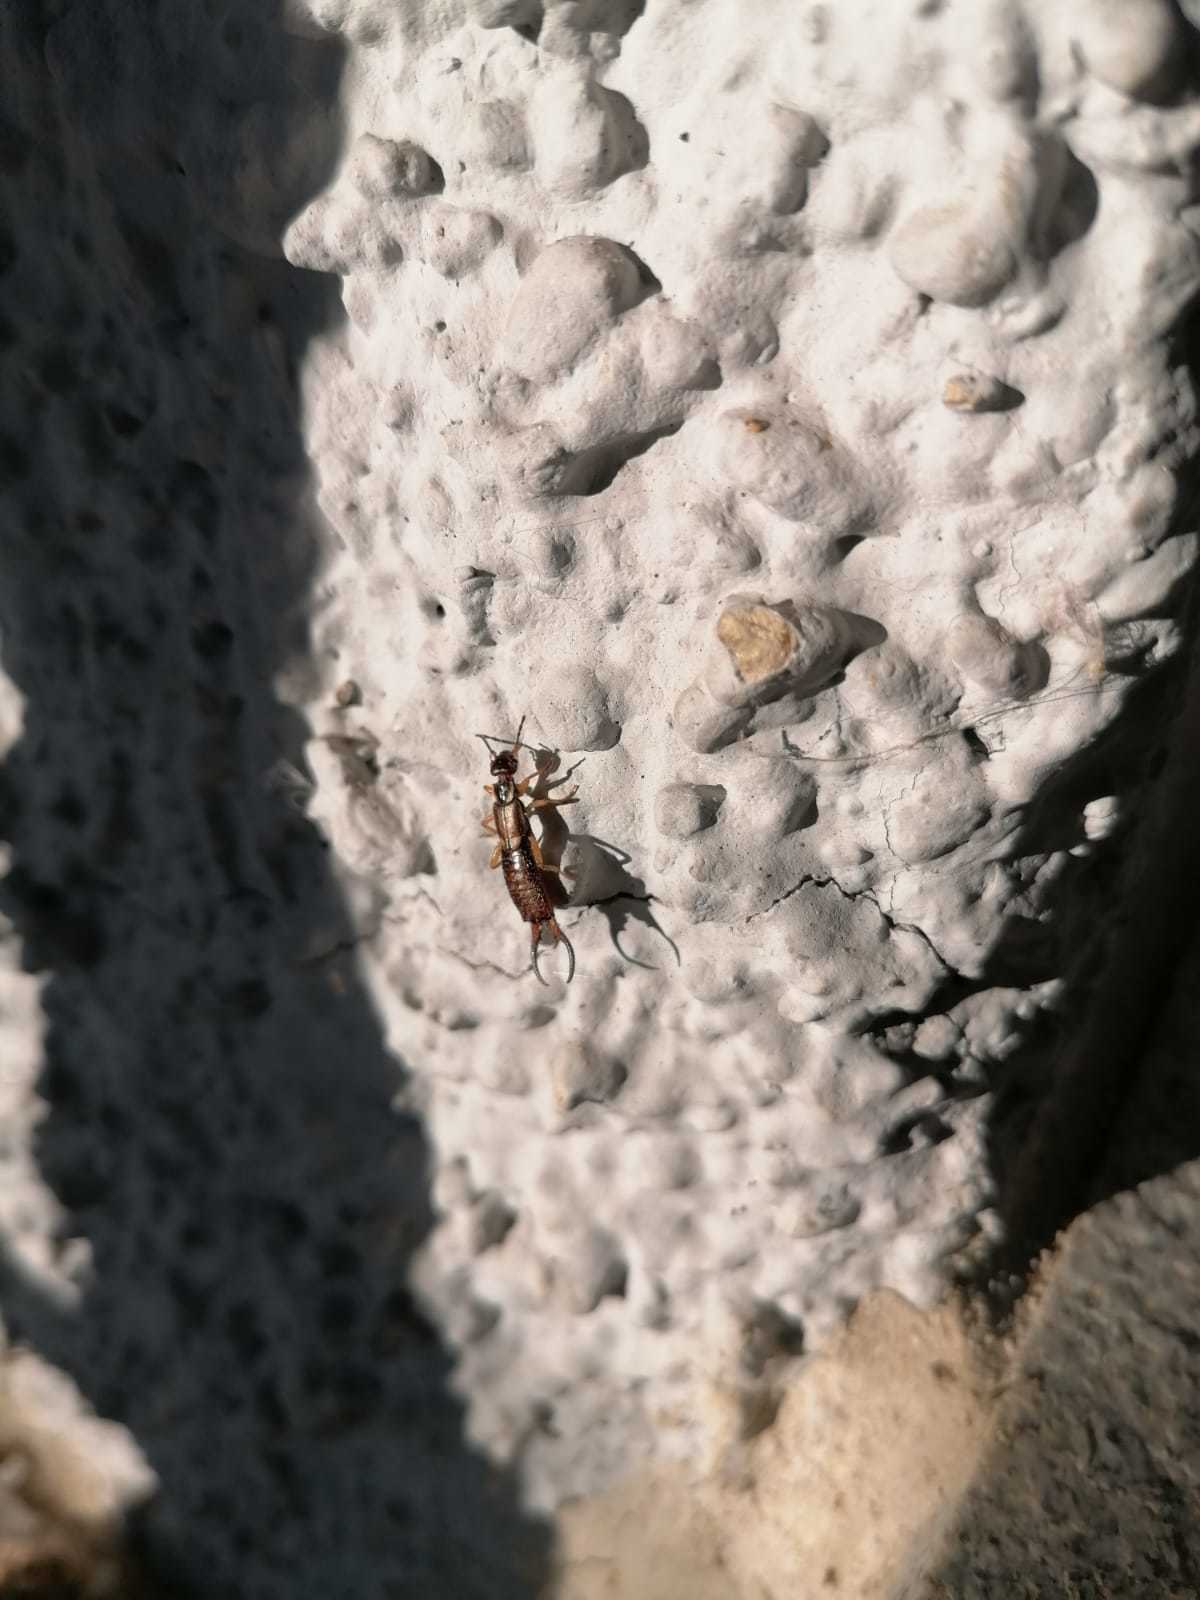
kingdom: Animalia
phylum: Arthropoda
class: Insecta
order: Dermaptera
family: Forficulidae
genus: Forficula
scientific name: Forficula
